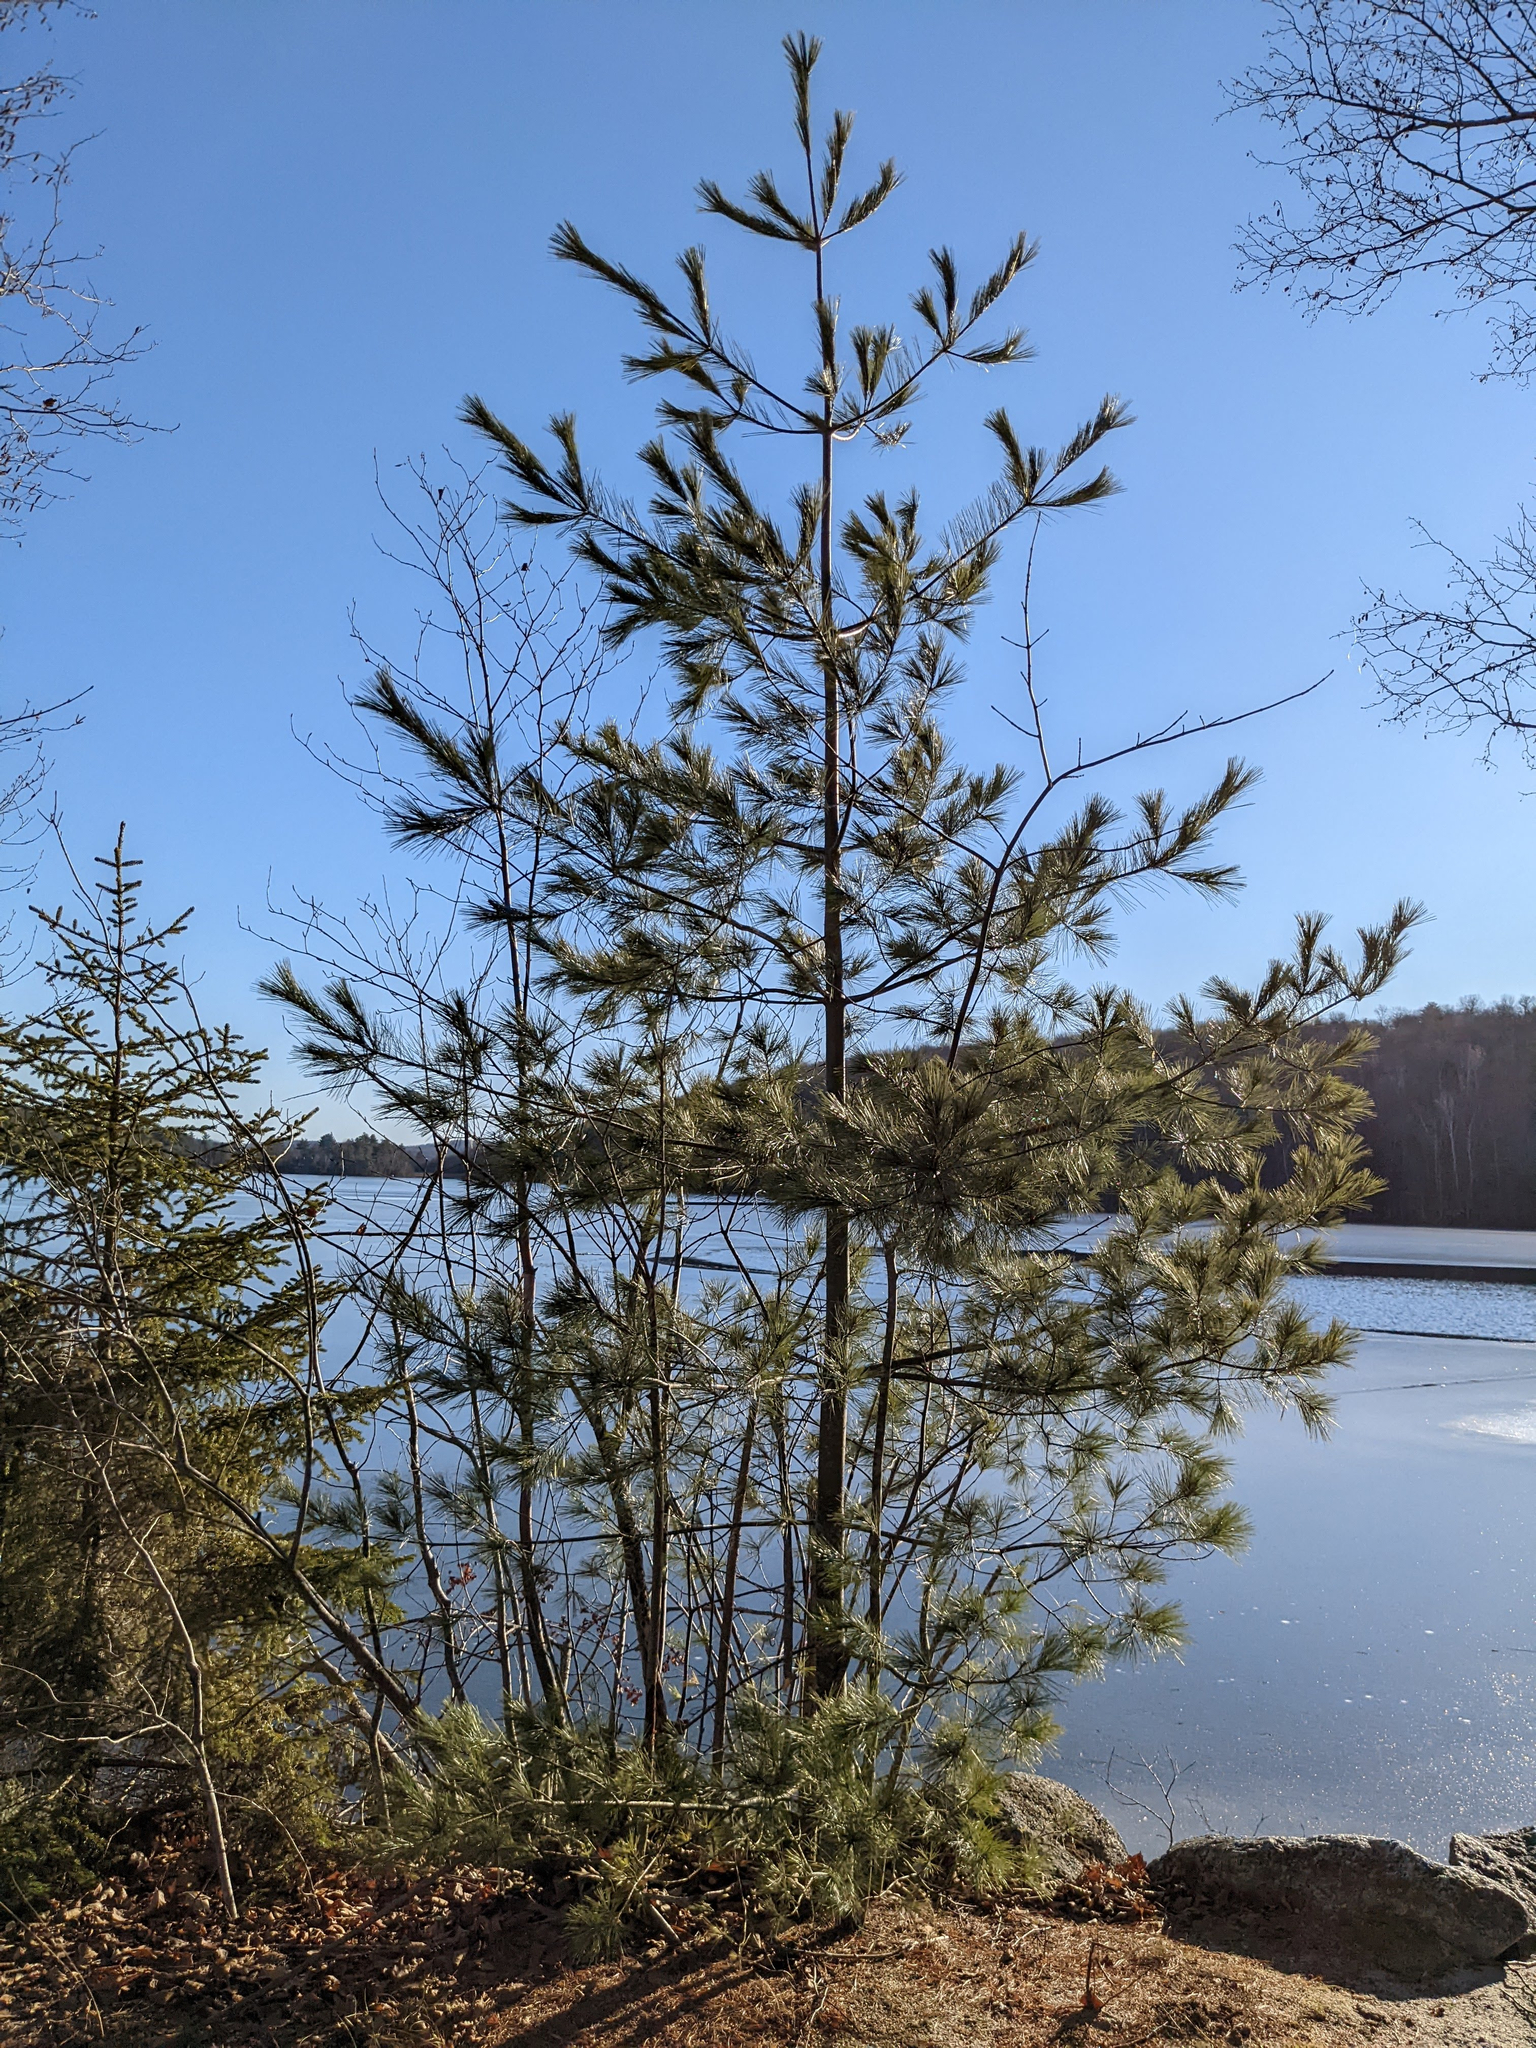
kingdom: Plantae
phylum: Tracheophyta
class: Pinopsida
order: Pinales
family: Pinaceae
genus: Pinus
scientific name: Pinus strobus
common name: Weymouth pine
